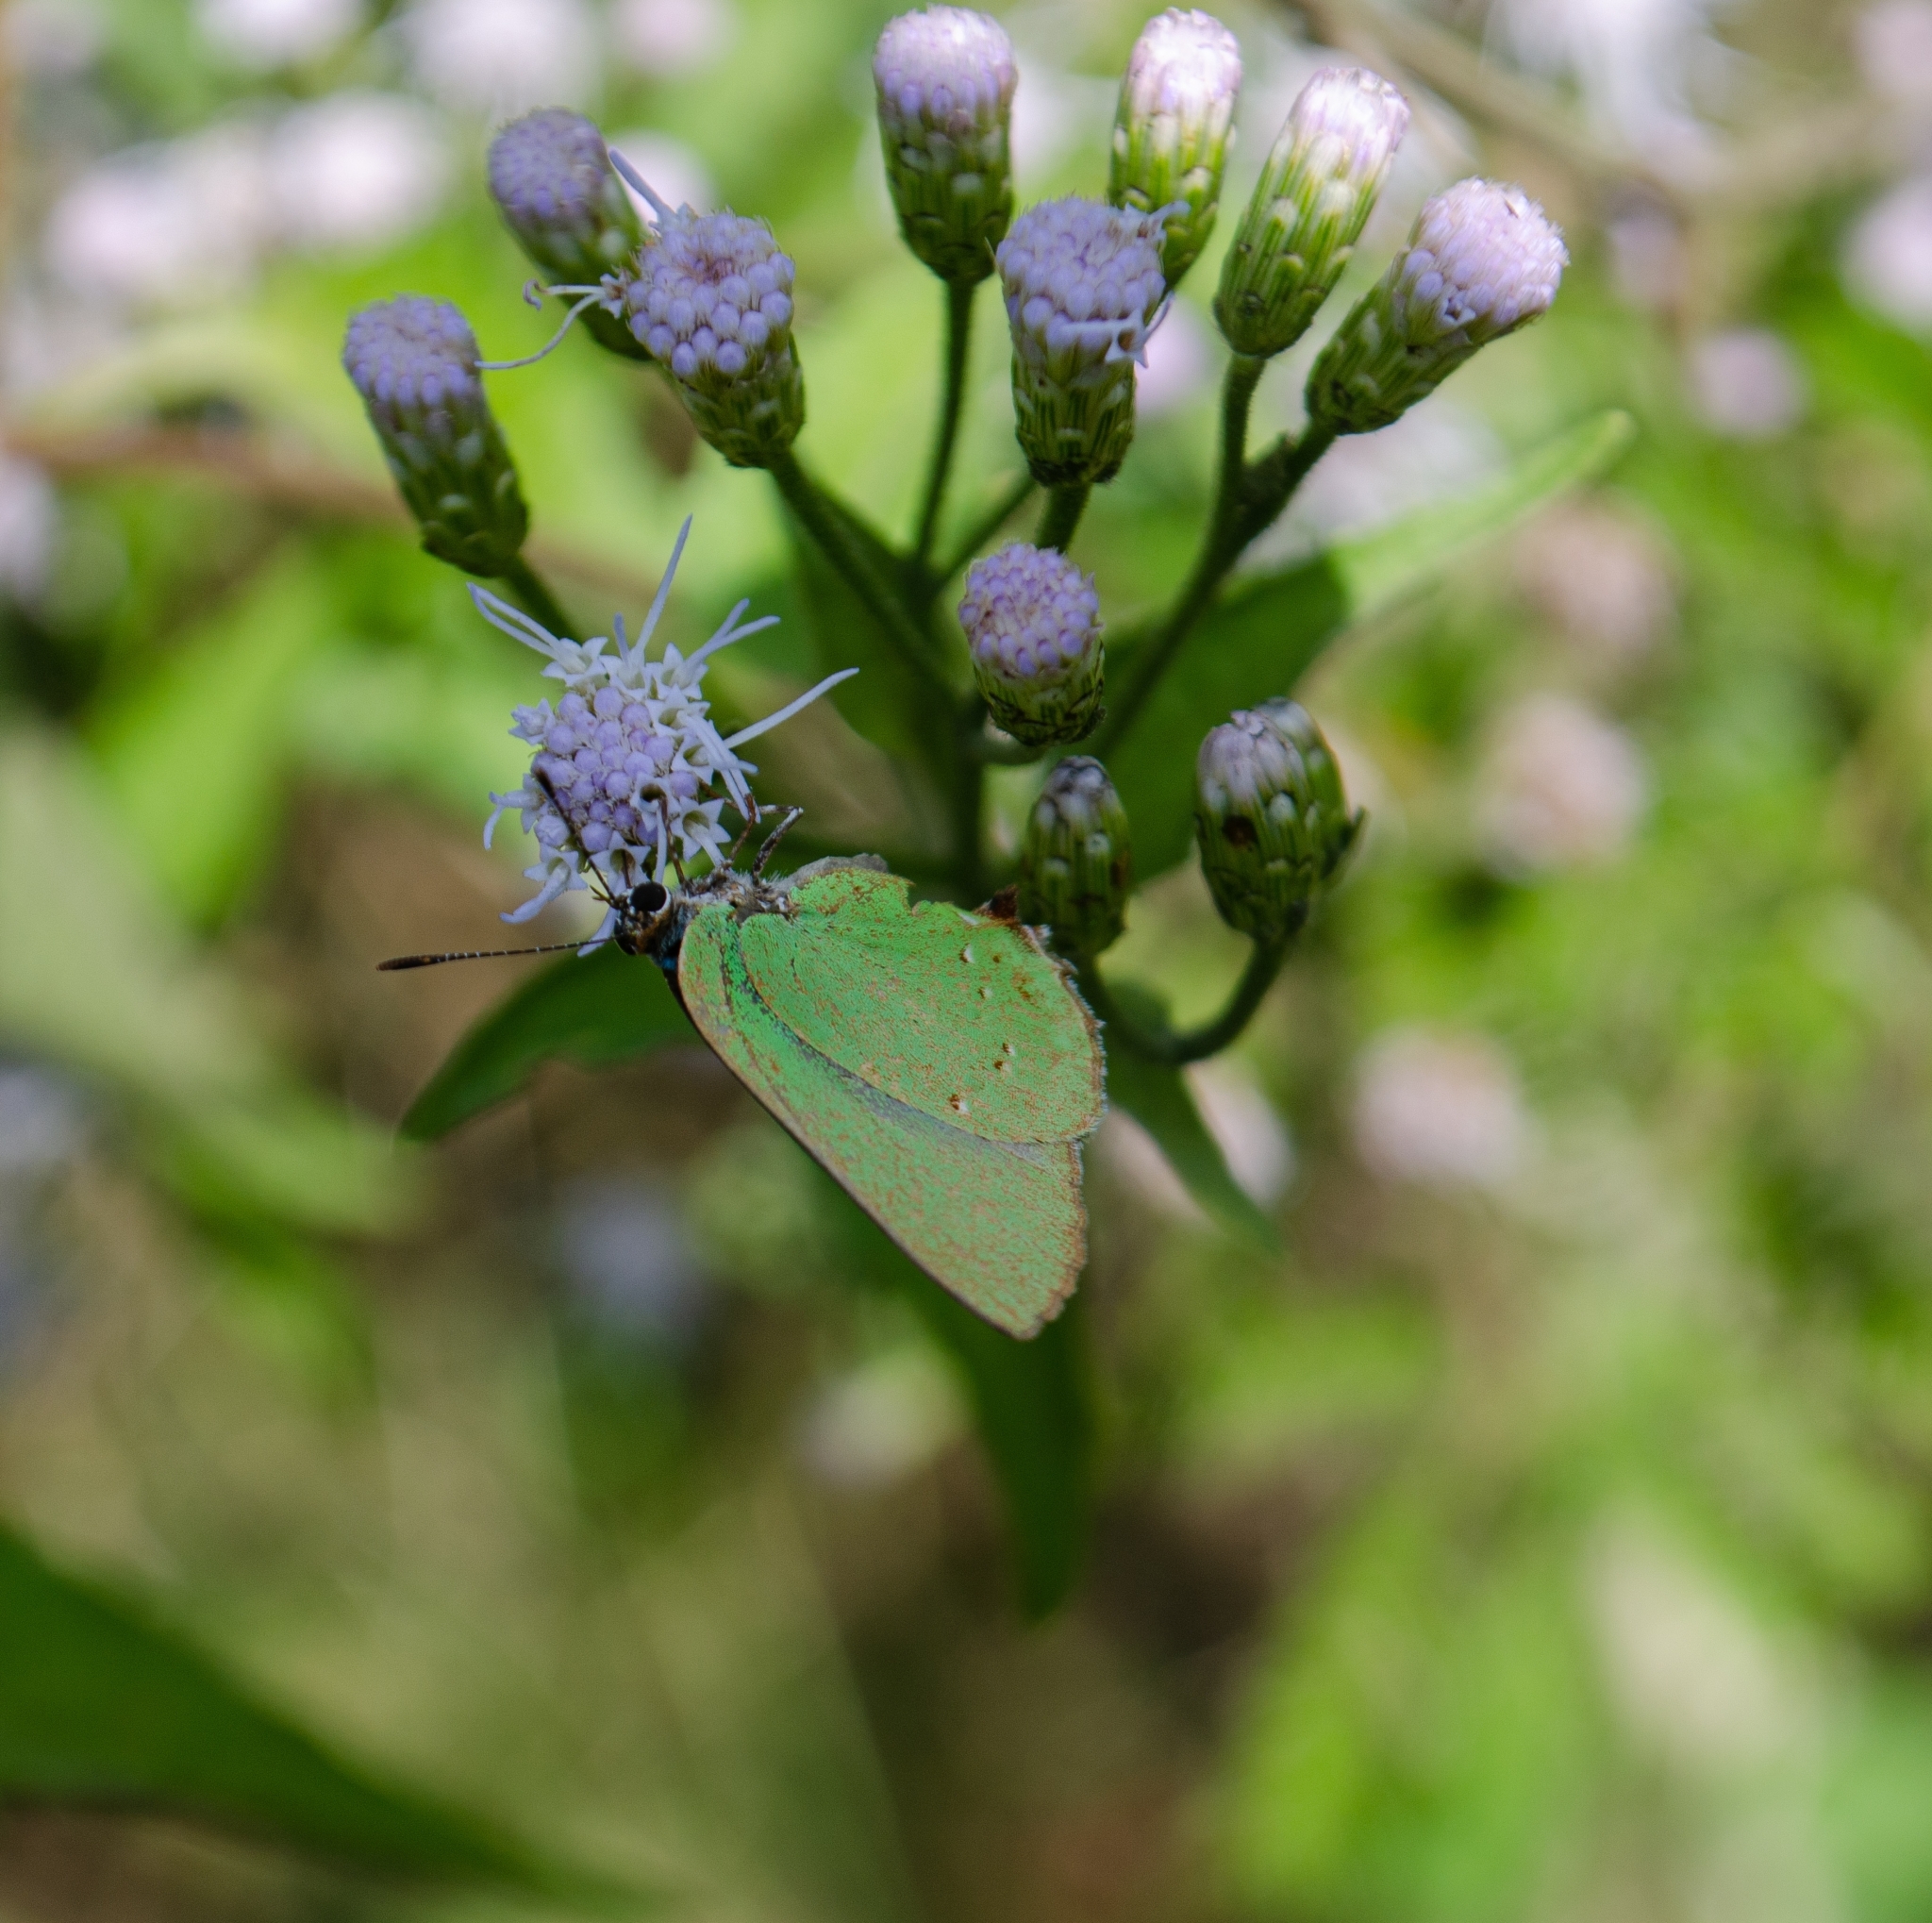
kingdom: Animalia
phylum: Arthropoda
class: Insecta
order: Lepidoptera
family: Lycaenidae
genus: Thecla
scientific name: Thecla herodotus
